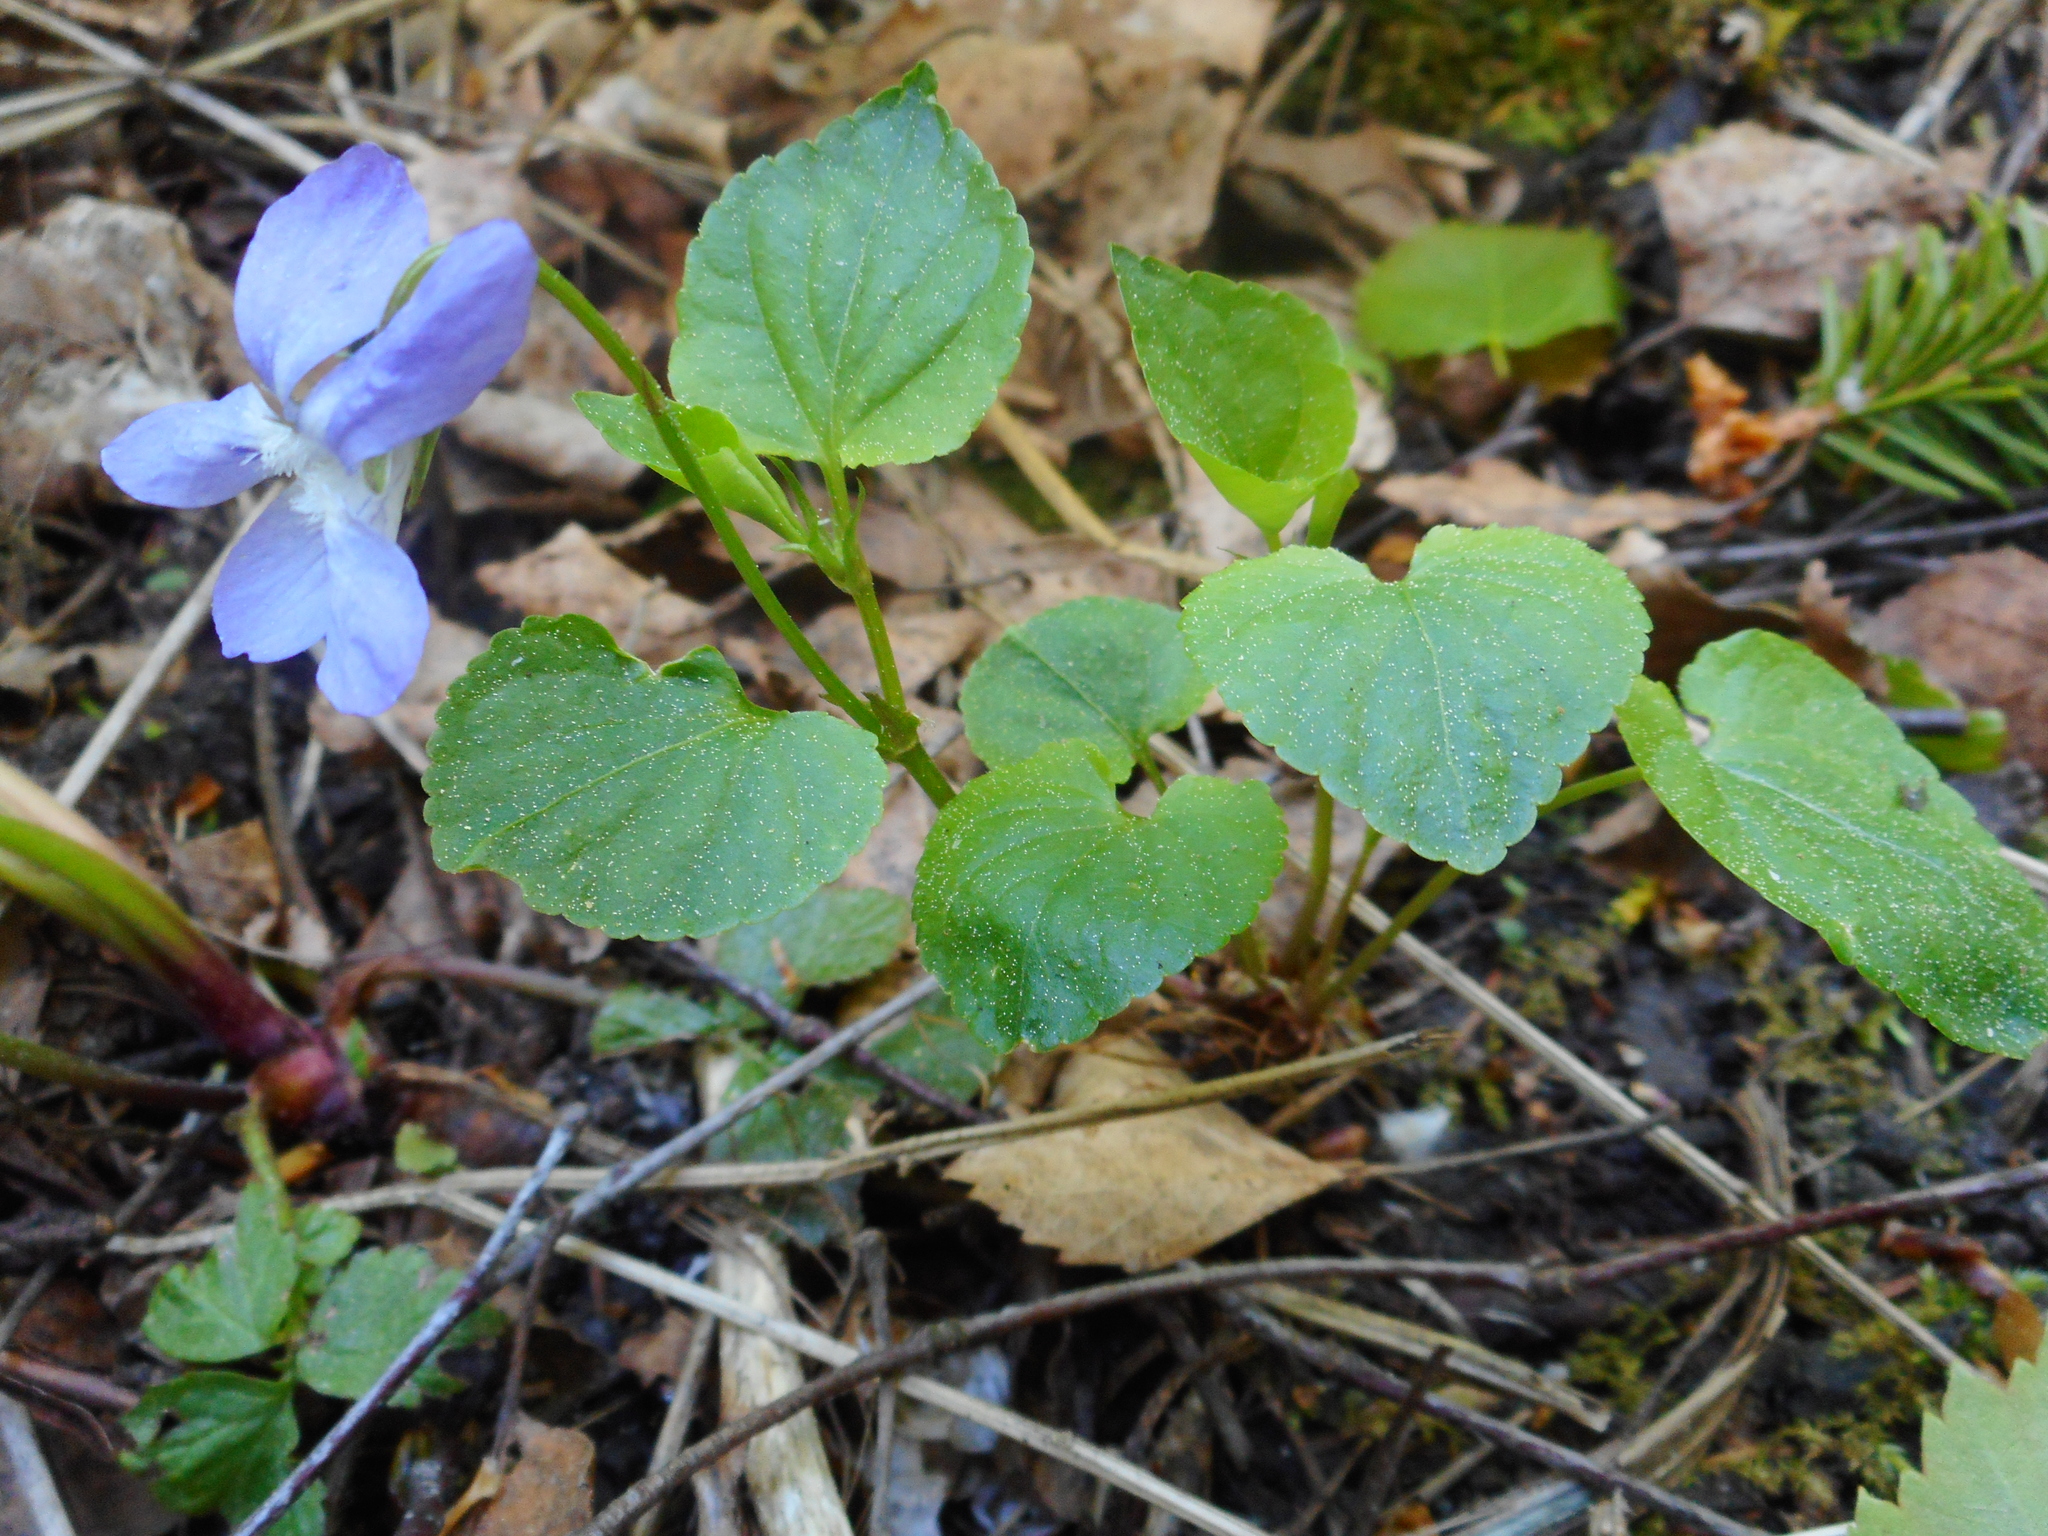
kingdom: Plantae
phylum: Tracheophyta
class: Magnoliopsida
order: Malpighiales
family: Violaceae
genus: Viola
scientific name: Viola riviniana
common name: Common dog-violet
